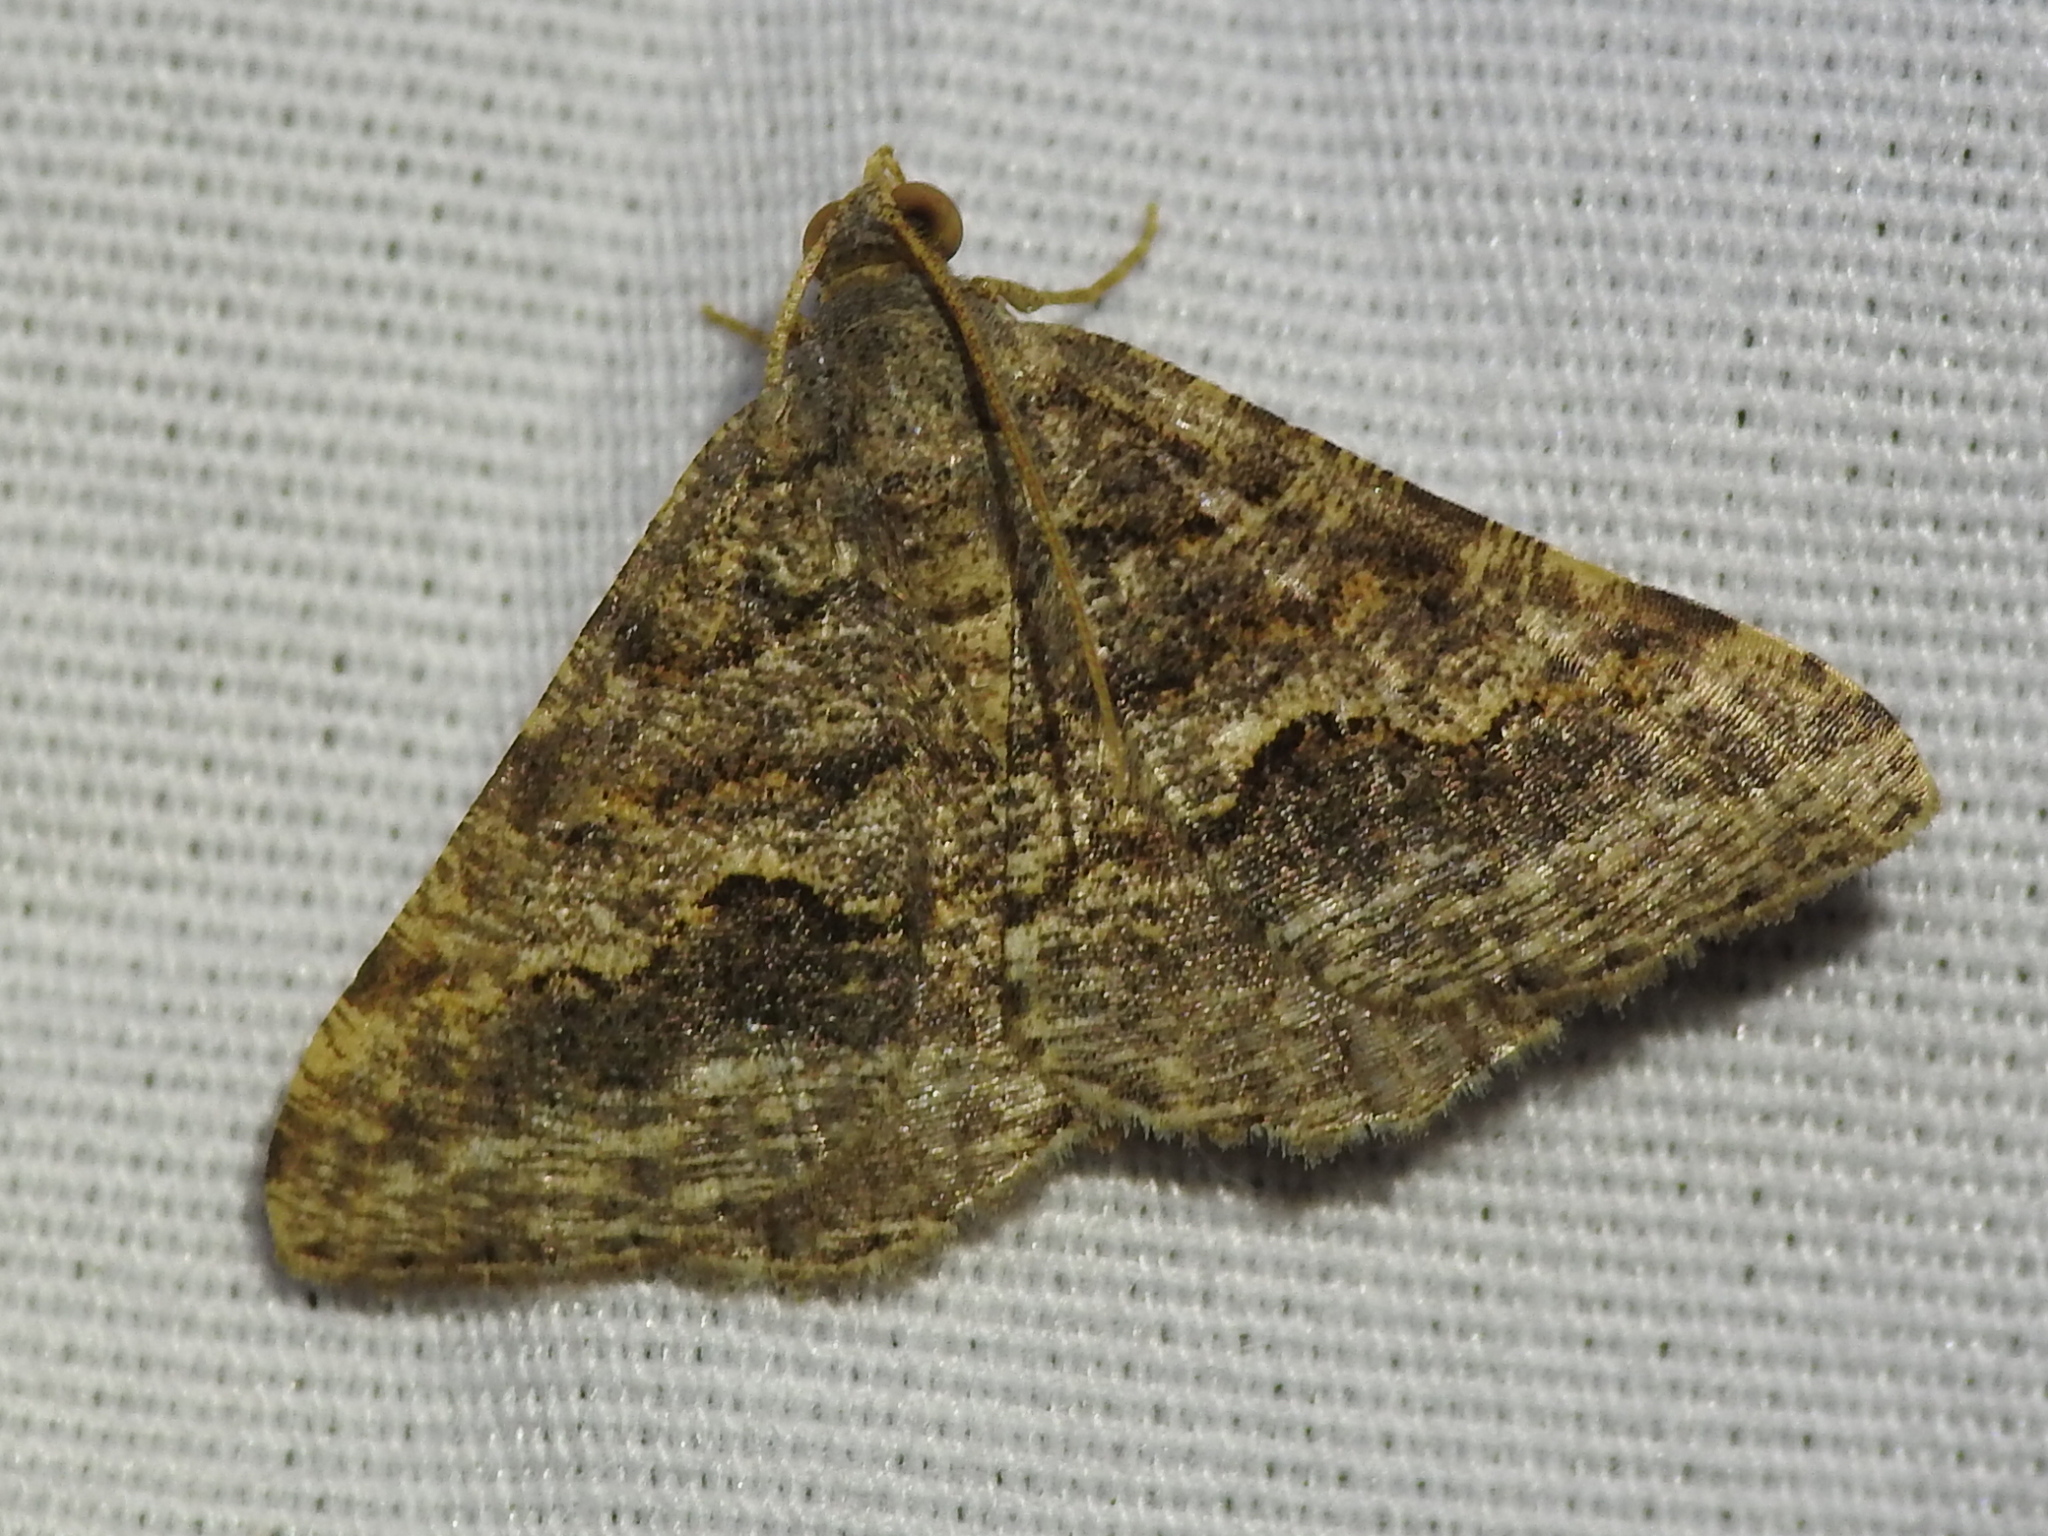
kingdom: Animalia
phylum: Arthropoda
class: Insecta
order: Lepidoptera
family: Geometridae
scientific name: Geometridae
